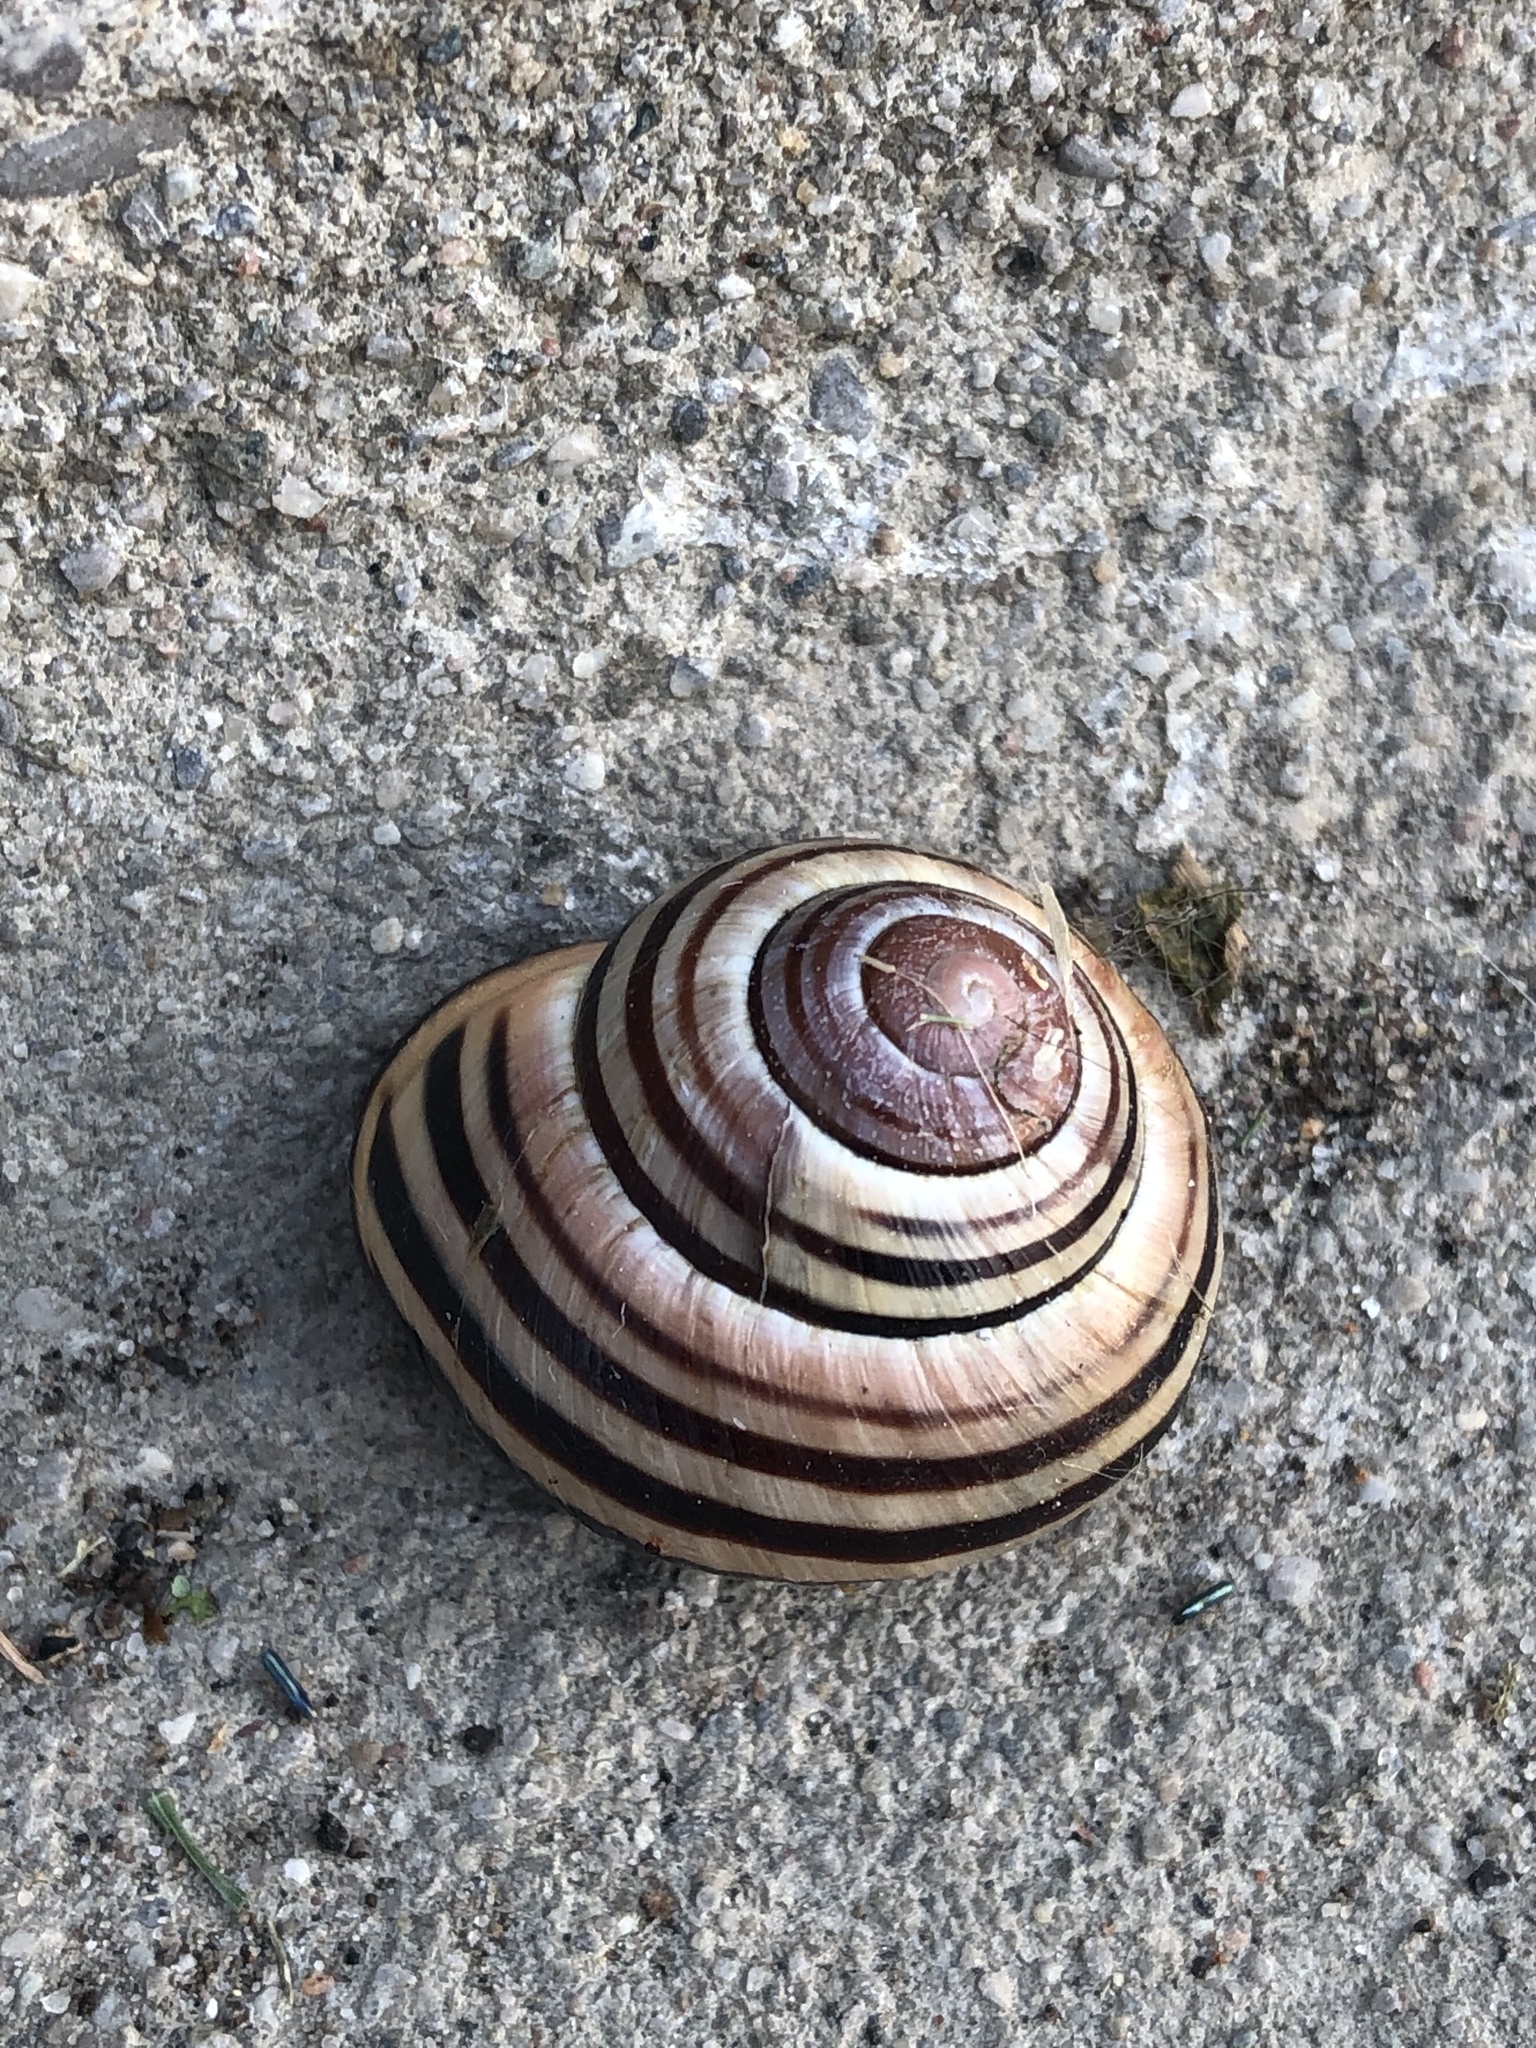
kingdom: Animalia
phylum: Mollusca
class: Gastropoda
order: Stylommatophora
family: Helicidae
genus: Cepaea
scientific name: Cepaea nemoralis
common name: Grovesnail
